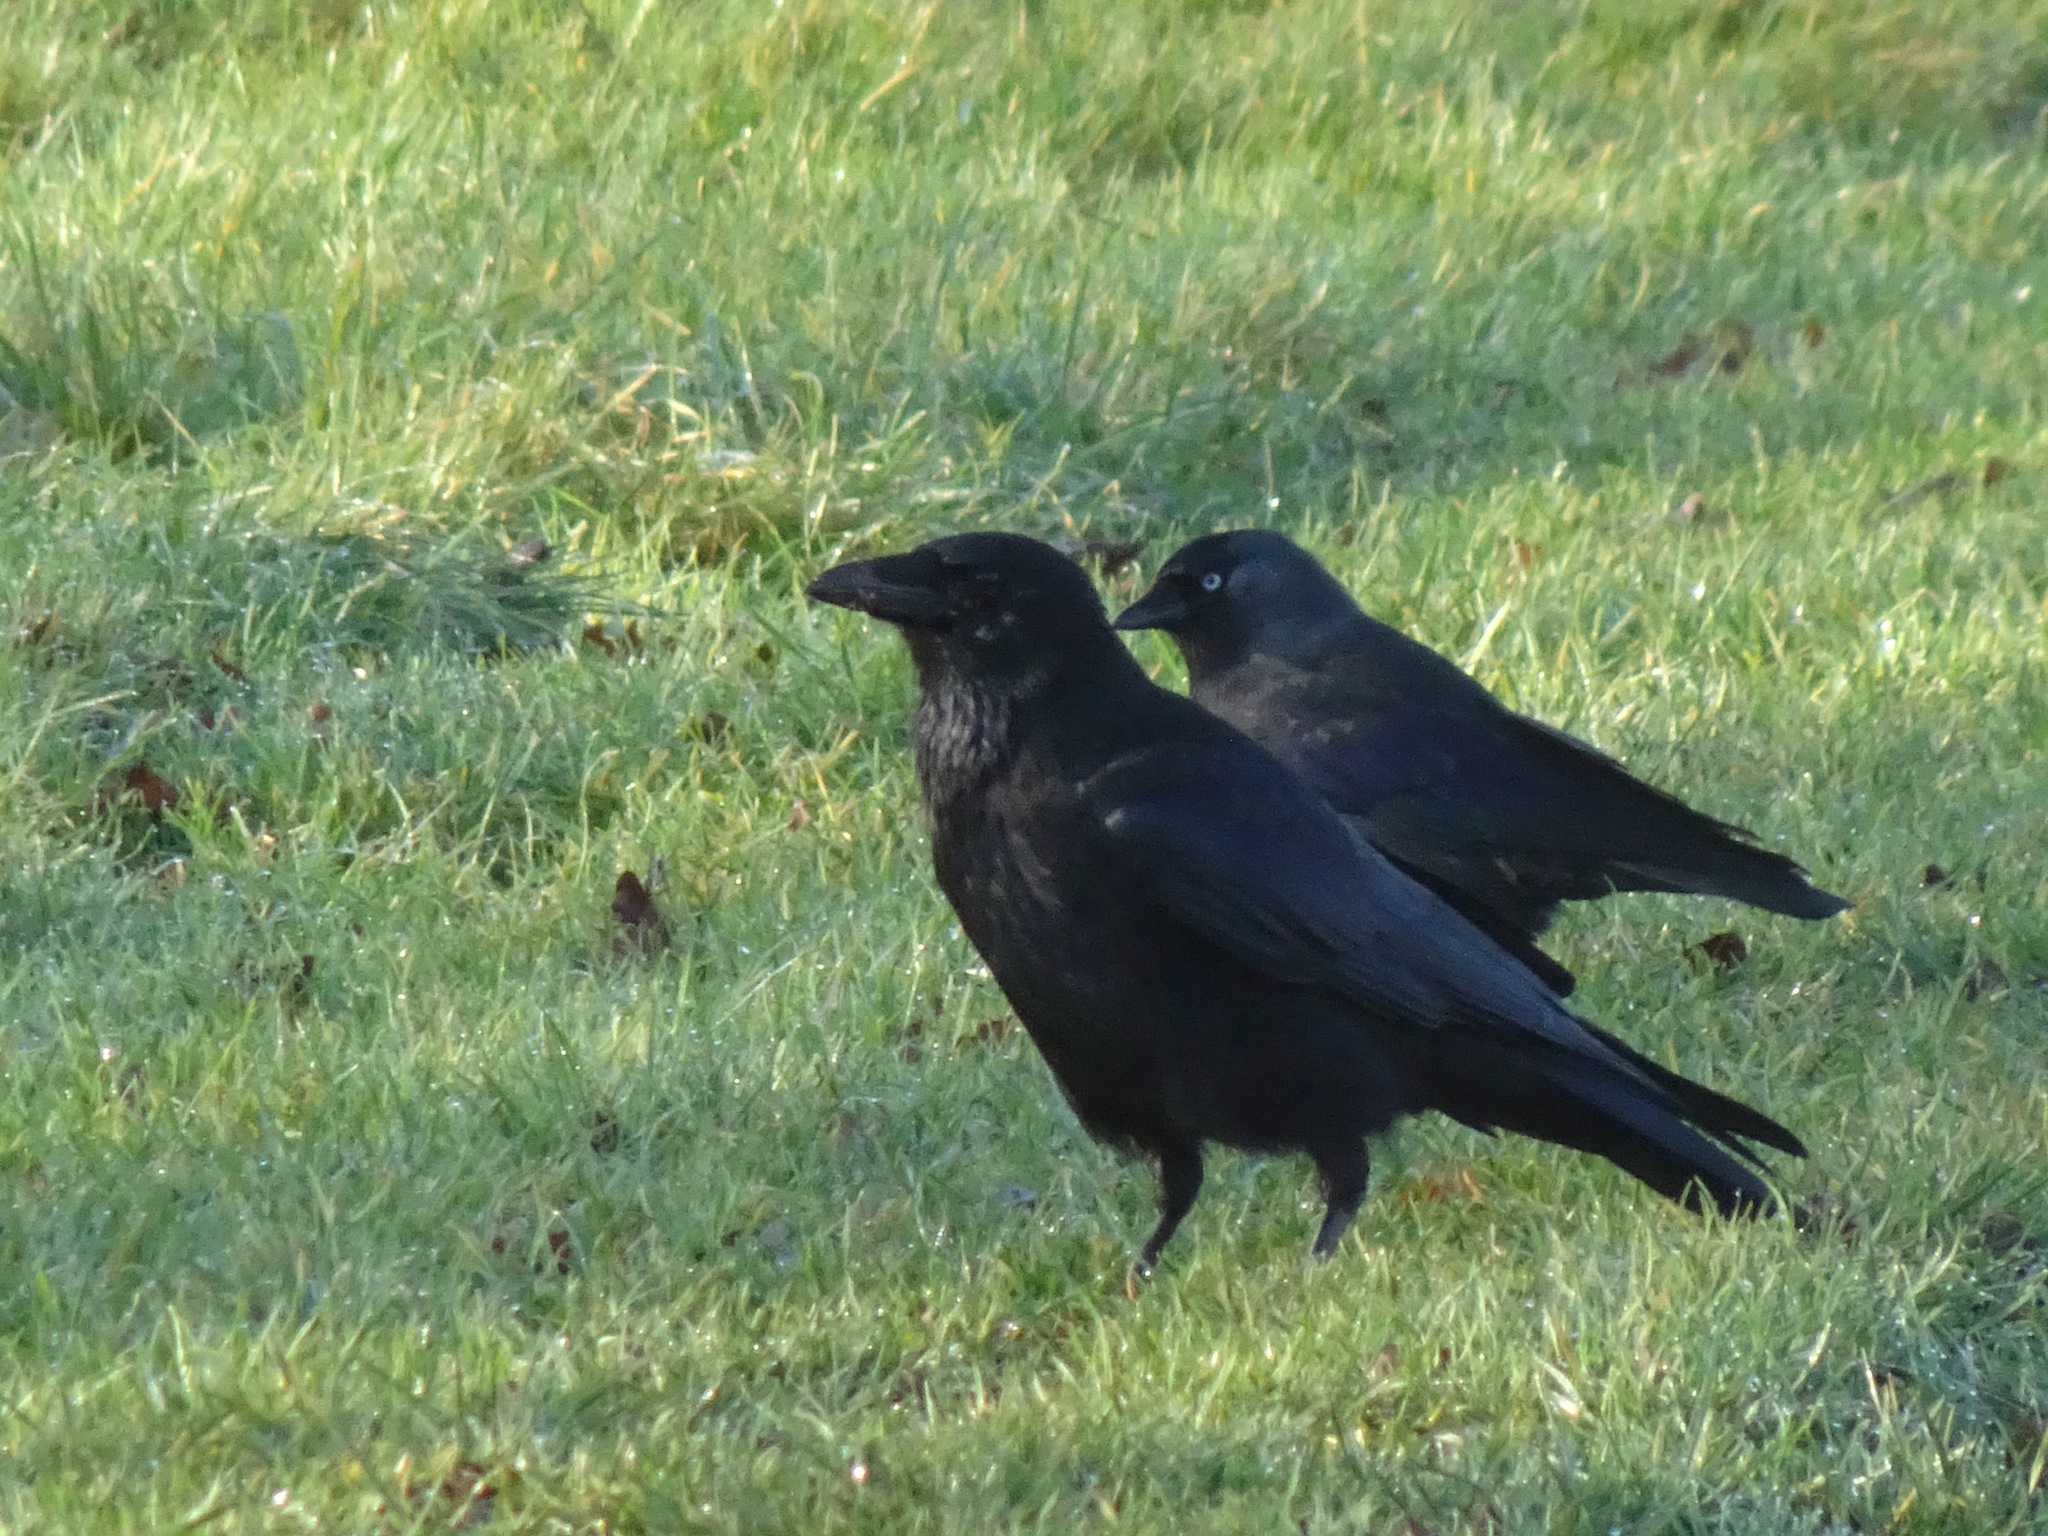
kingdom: Animalia
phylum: Chordata
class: Aves
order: Passeriformes
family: Corvidae
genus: Corvus
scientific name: Corvus corone
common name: Carrion crow
